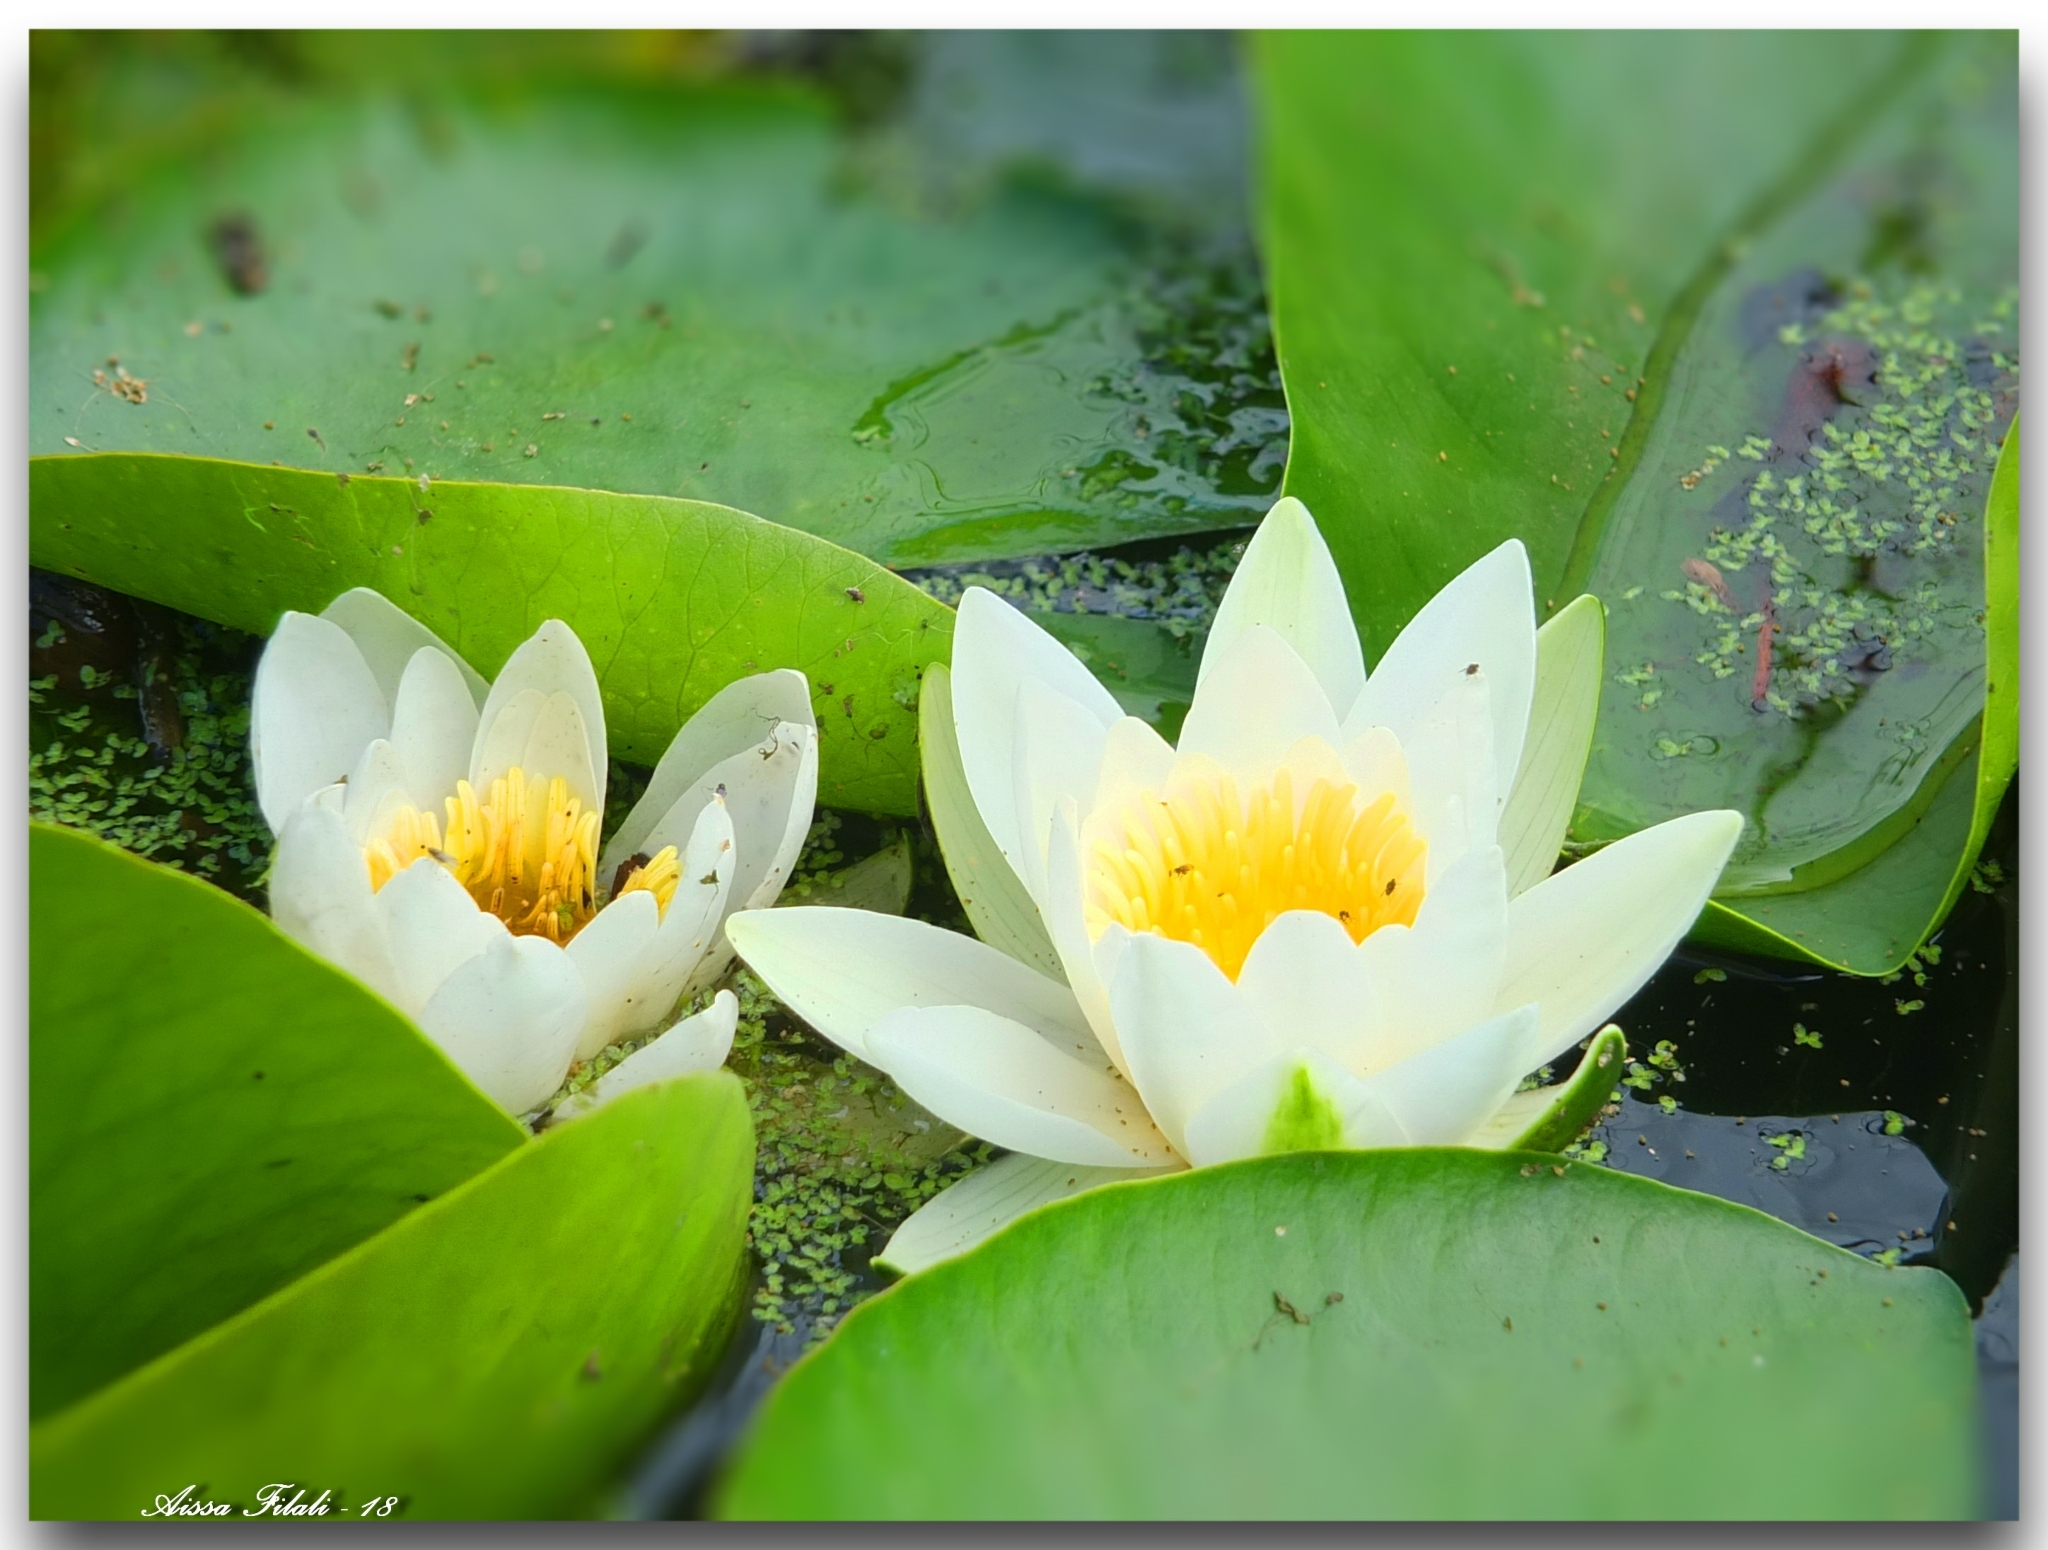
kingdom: Plantae
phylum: Tracheophyta
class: Magnoliopsida
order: Nymphaeales
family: Nymphaeaceae
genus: Nymphaea
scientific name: Nymphaea alba
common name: White water-lily
